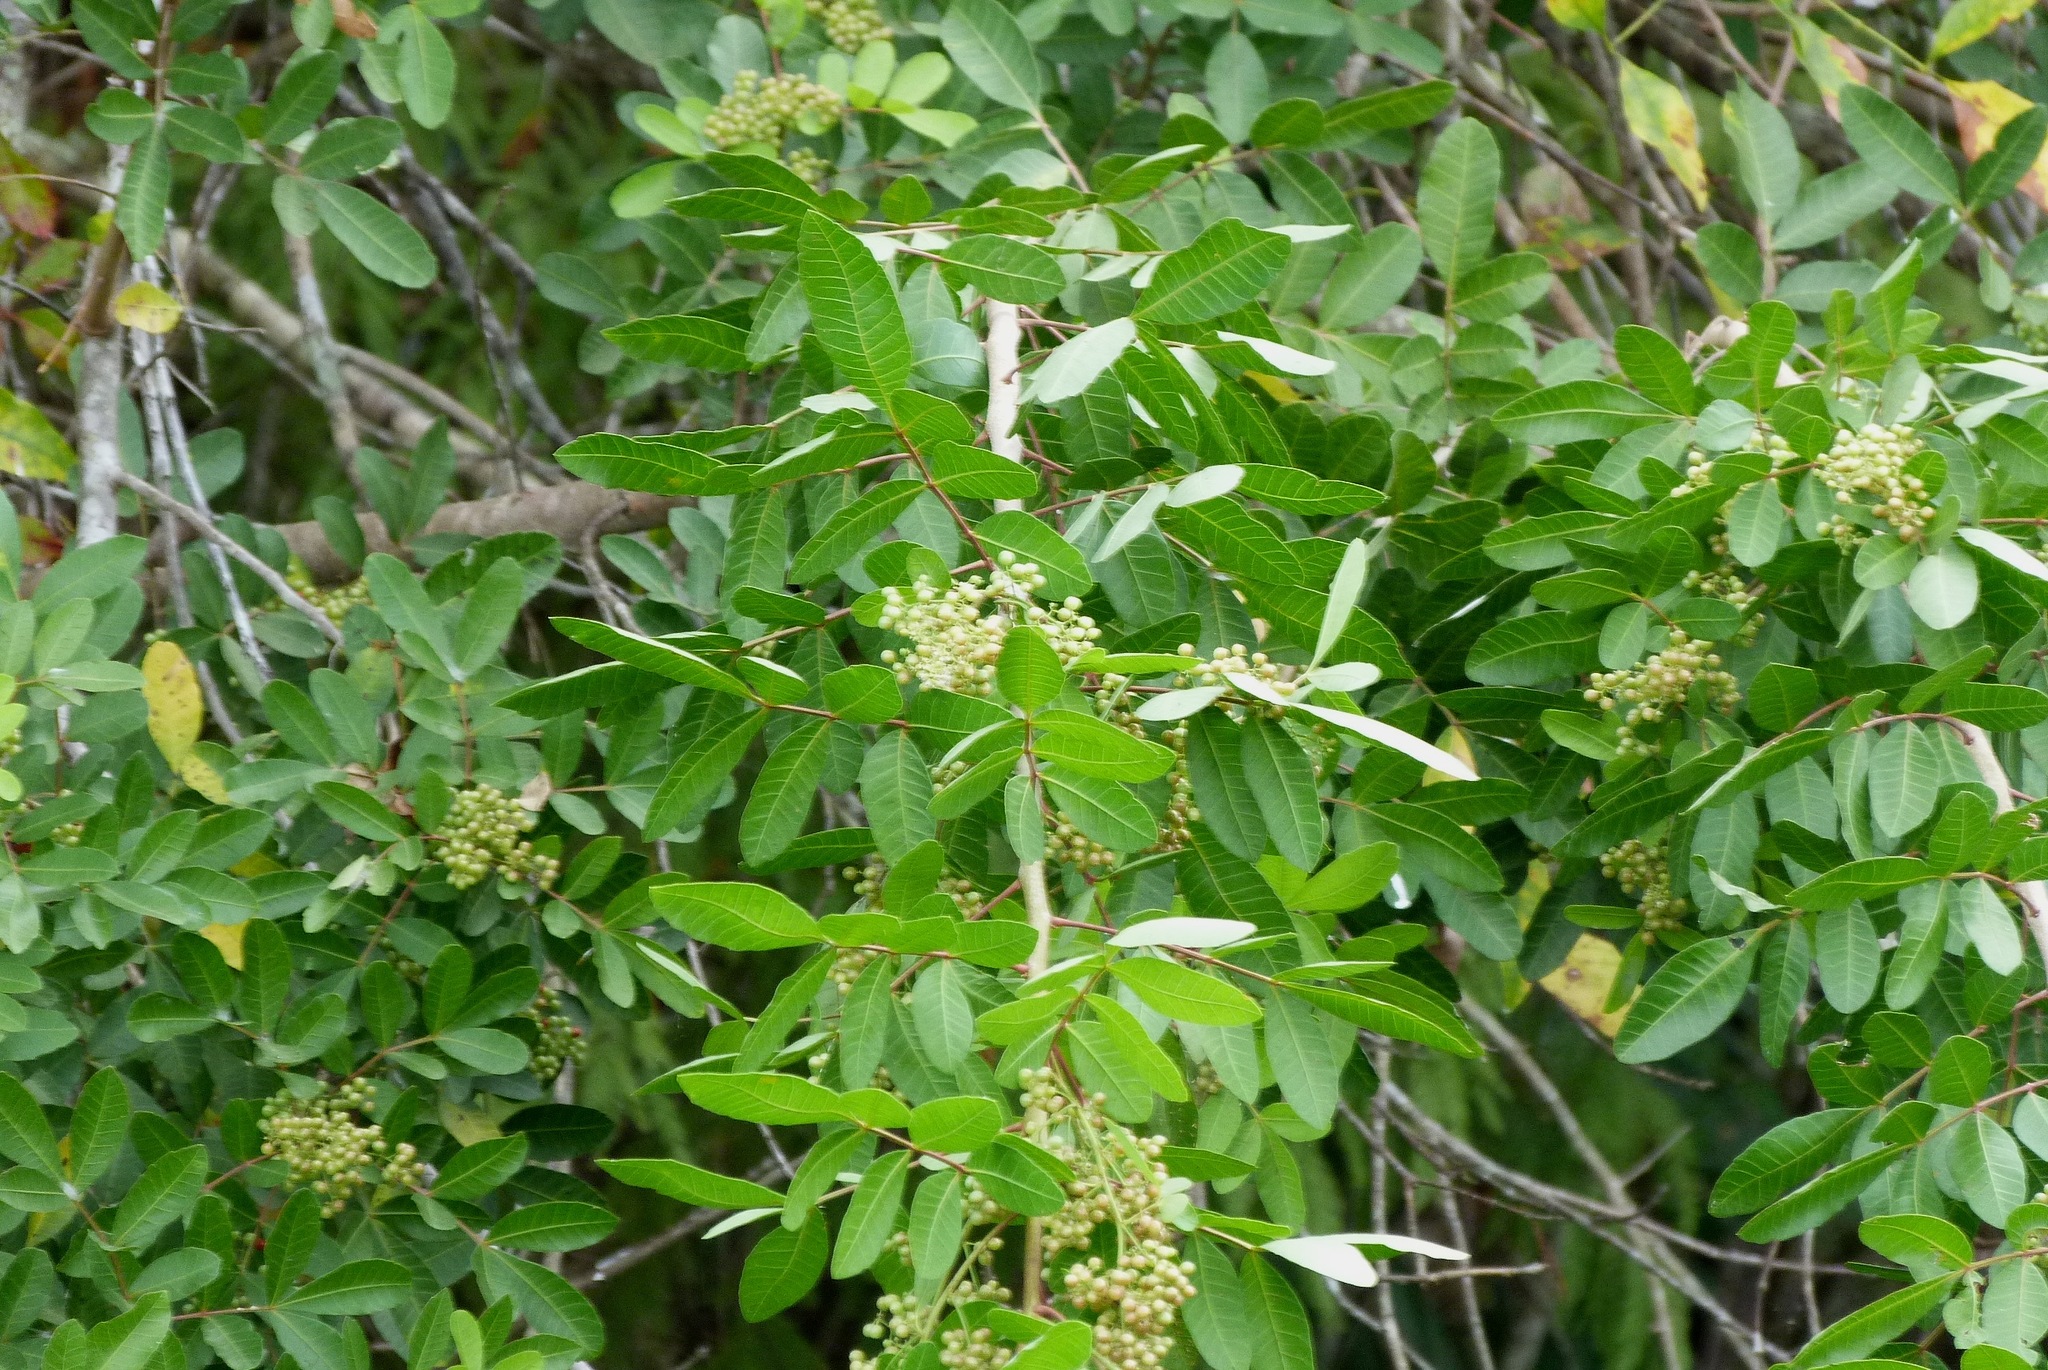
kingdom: Plantae
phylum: Tracheophyta
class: Magnoliopsida
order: Sapindales
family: Anacardiaceae
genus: Schinus
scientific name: Schinus terebinthifolia
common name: Brazilian peppertree
